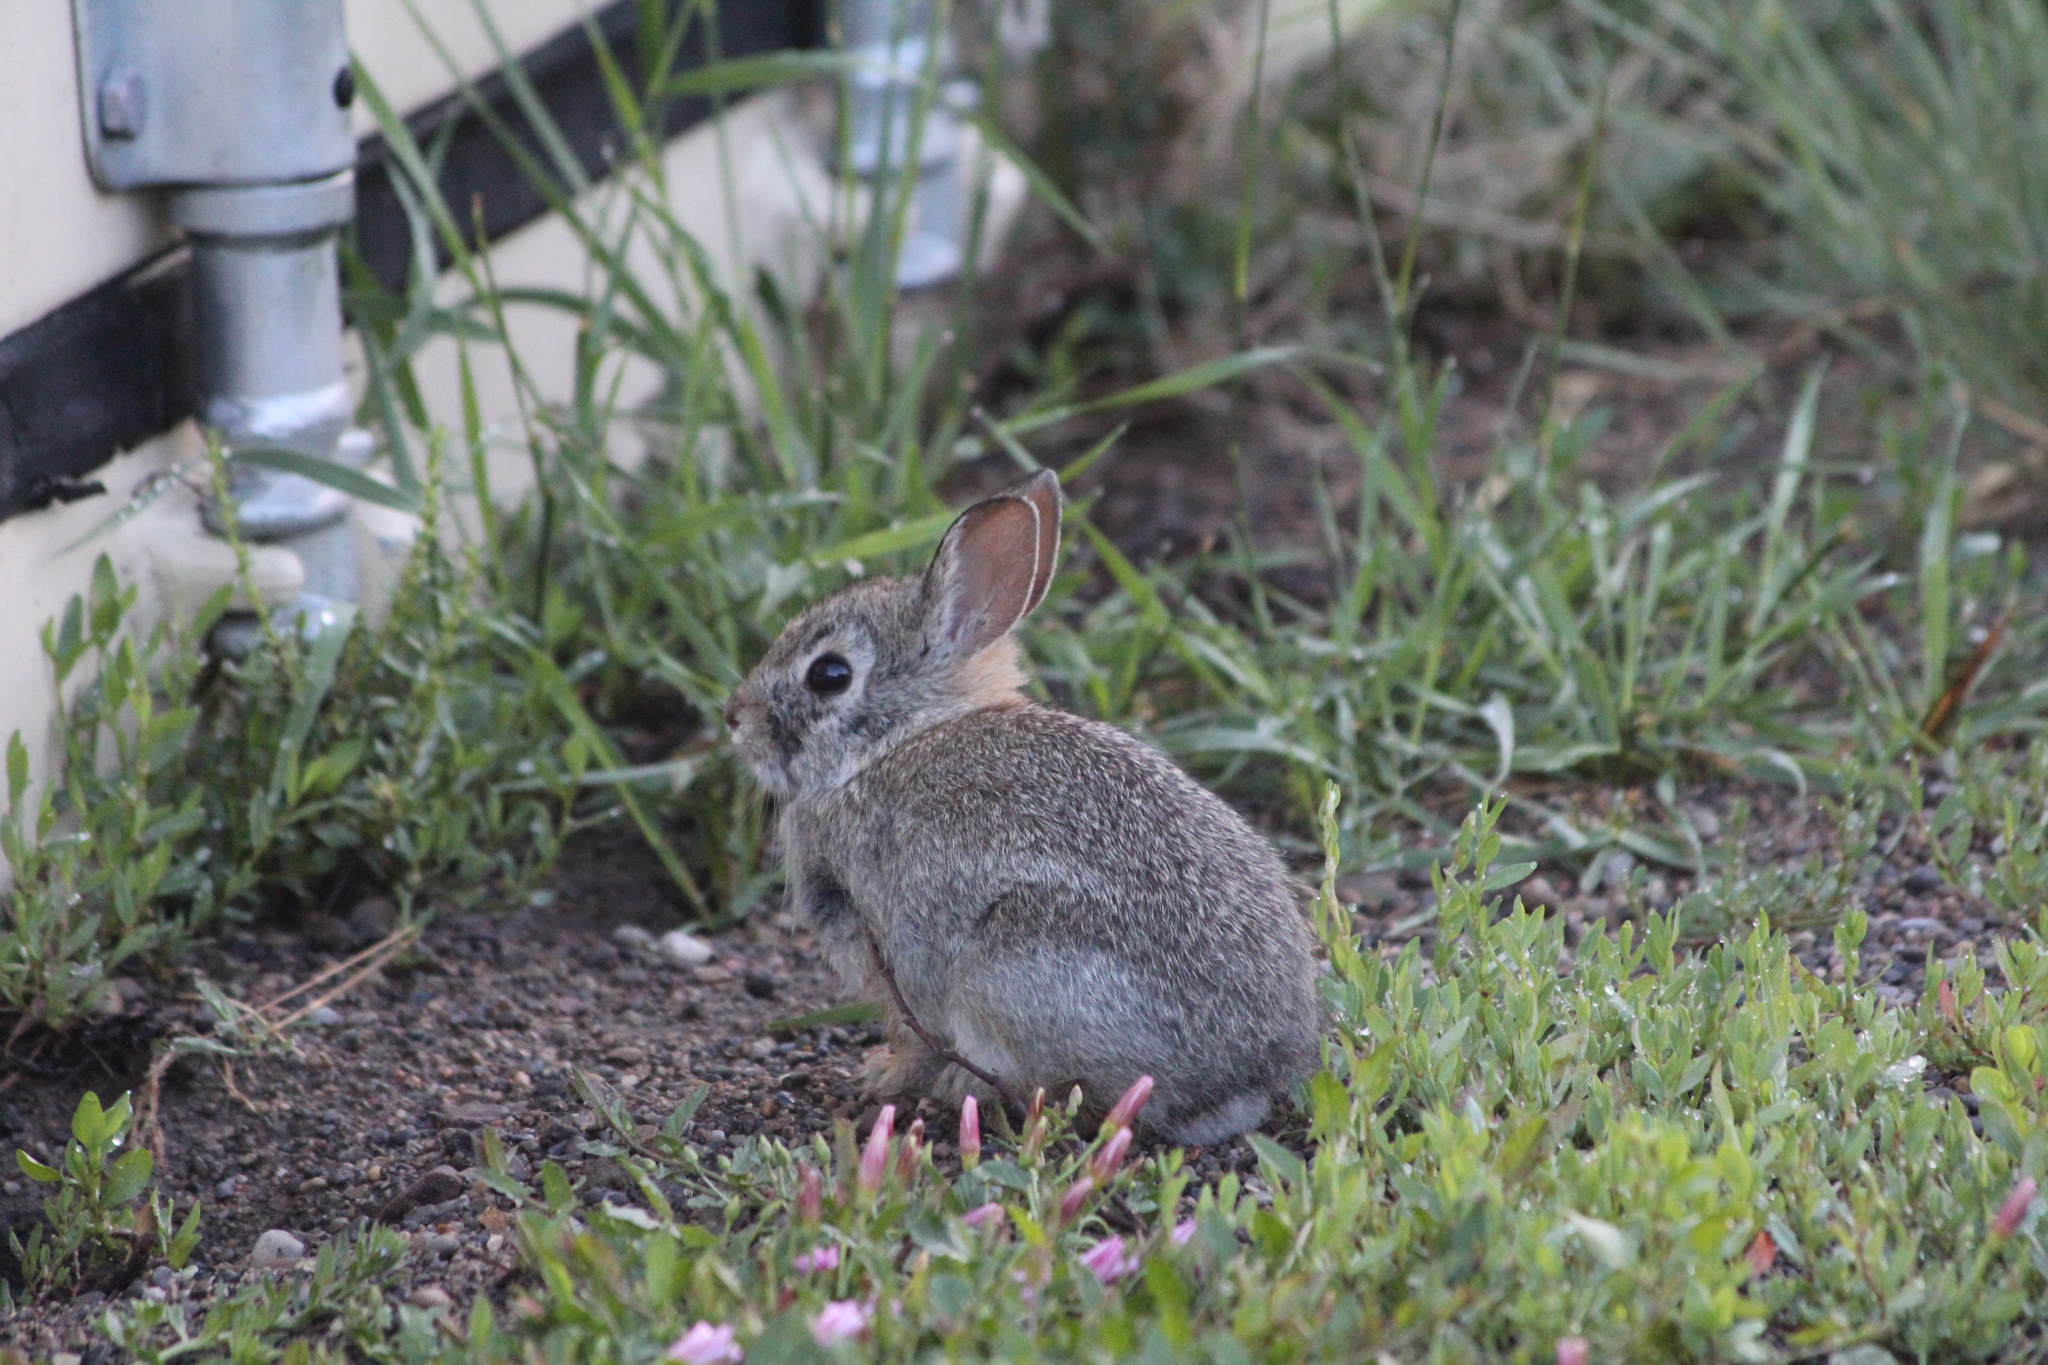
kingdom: Animalia
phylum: Chordata
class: Mammalia
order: Lagomorpha
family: Leporidae
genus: Sylvilagus
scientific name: Sylvilagus nuttallii
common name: Mountain cottontail
